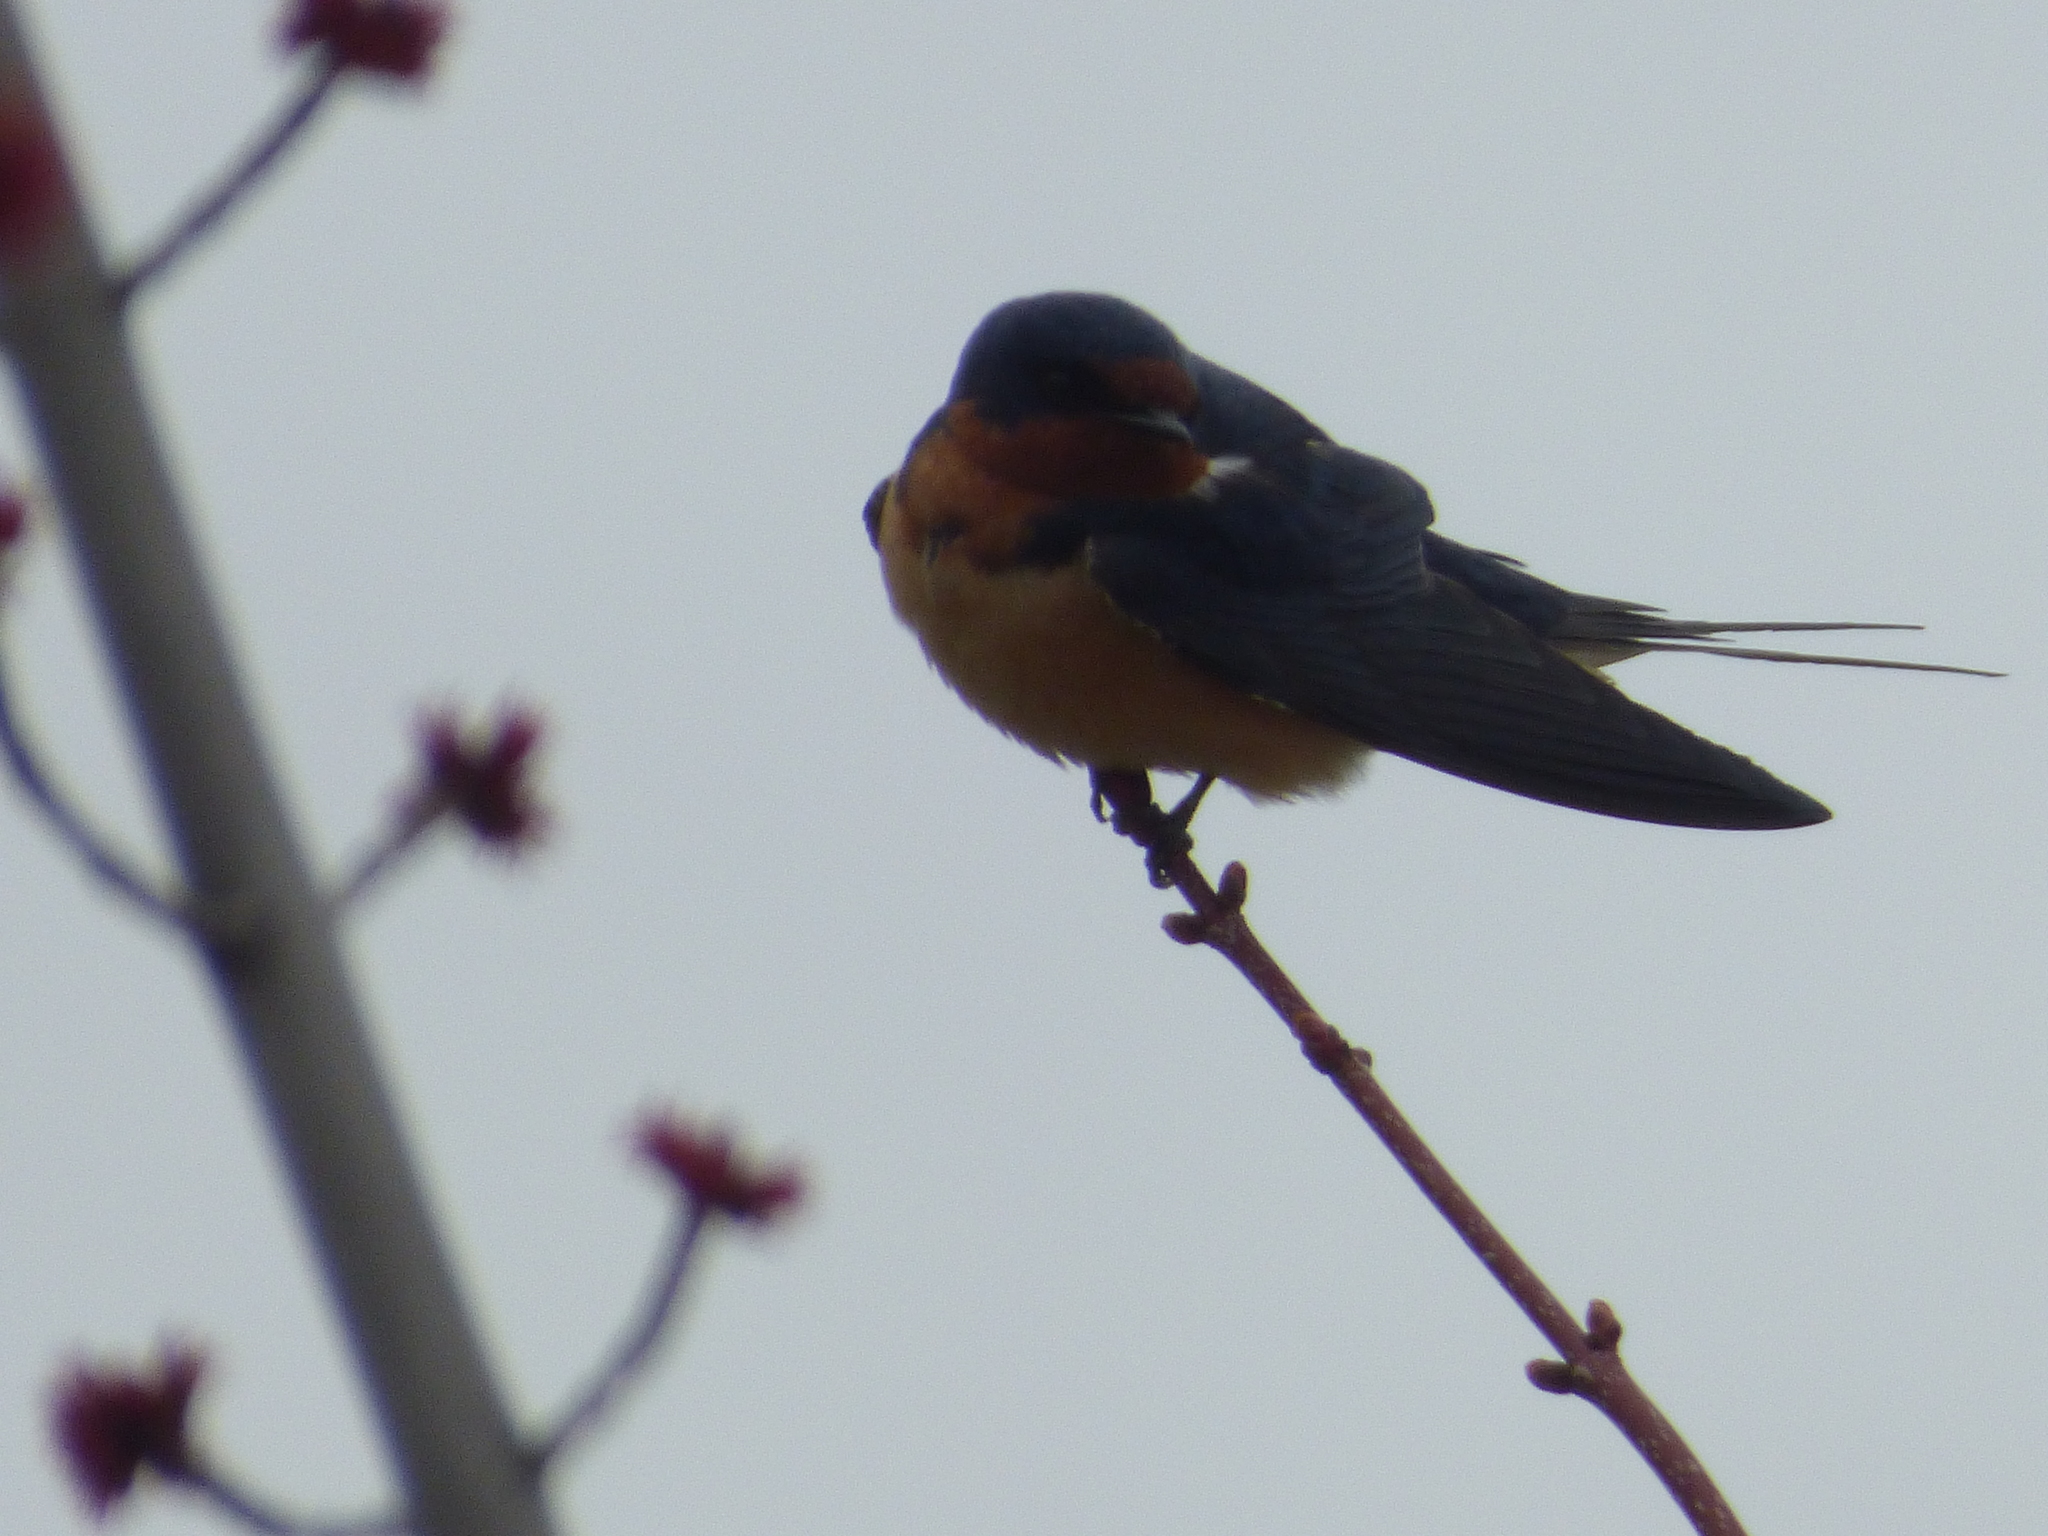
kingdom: Animalia
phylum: Chordata
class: Aves
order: Passeriformes
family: Hirundinidae
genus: Hirundo
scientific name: Hirundo rustica
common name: Barn swallow
